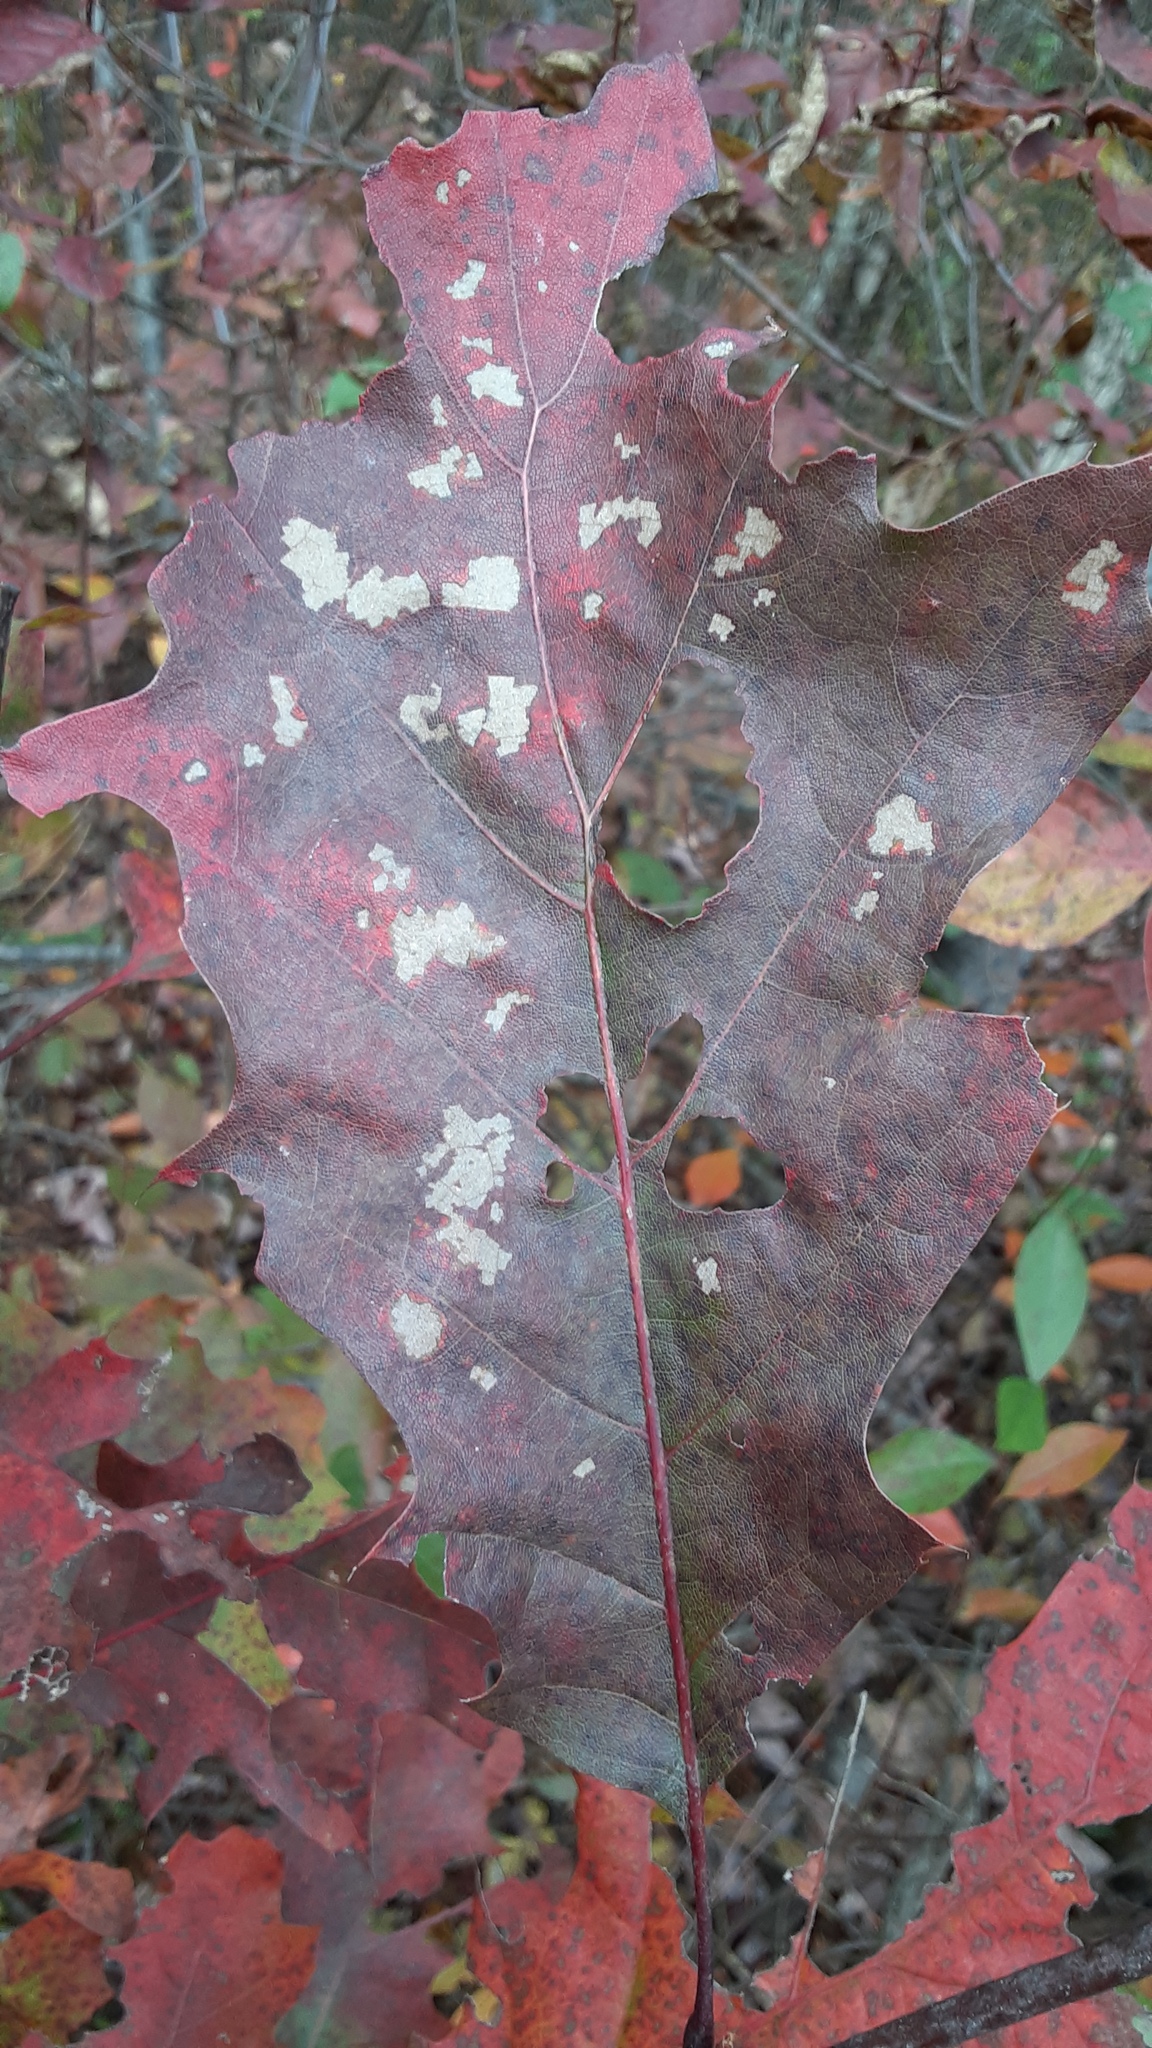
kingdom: Animalia
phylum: Arthropoda
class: Insecta
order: Hymenoptera
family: Cynipidae
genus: Kokkocynips
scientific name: Kokkocynips decidua
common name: Oak wheat gall
